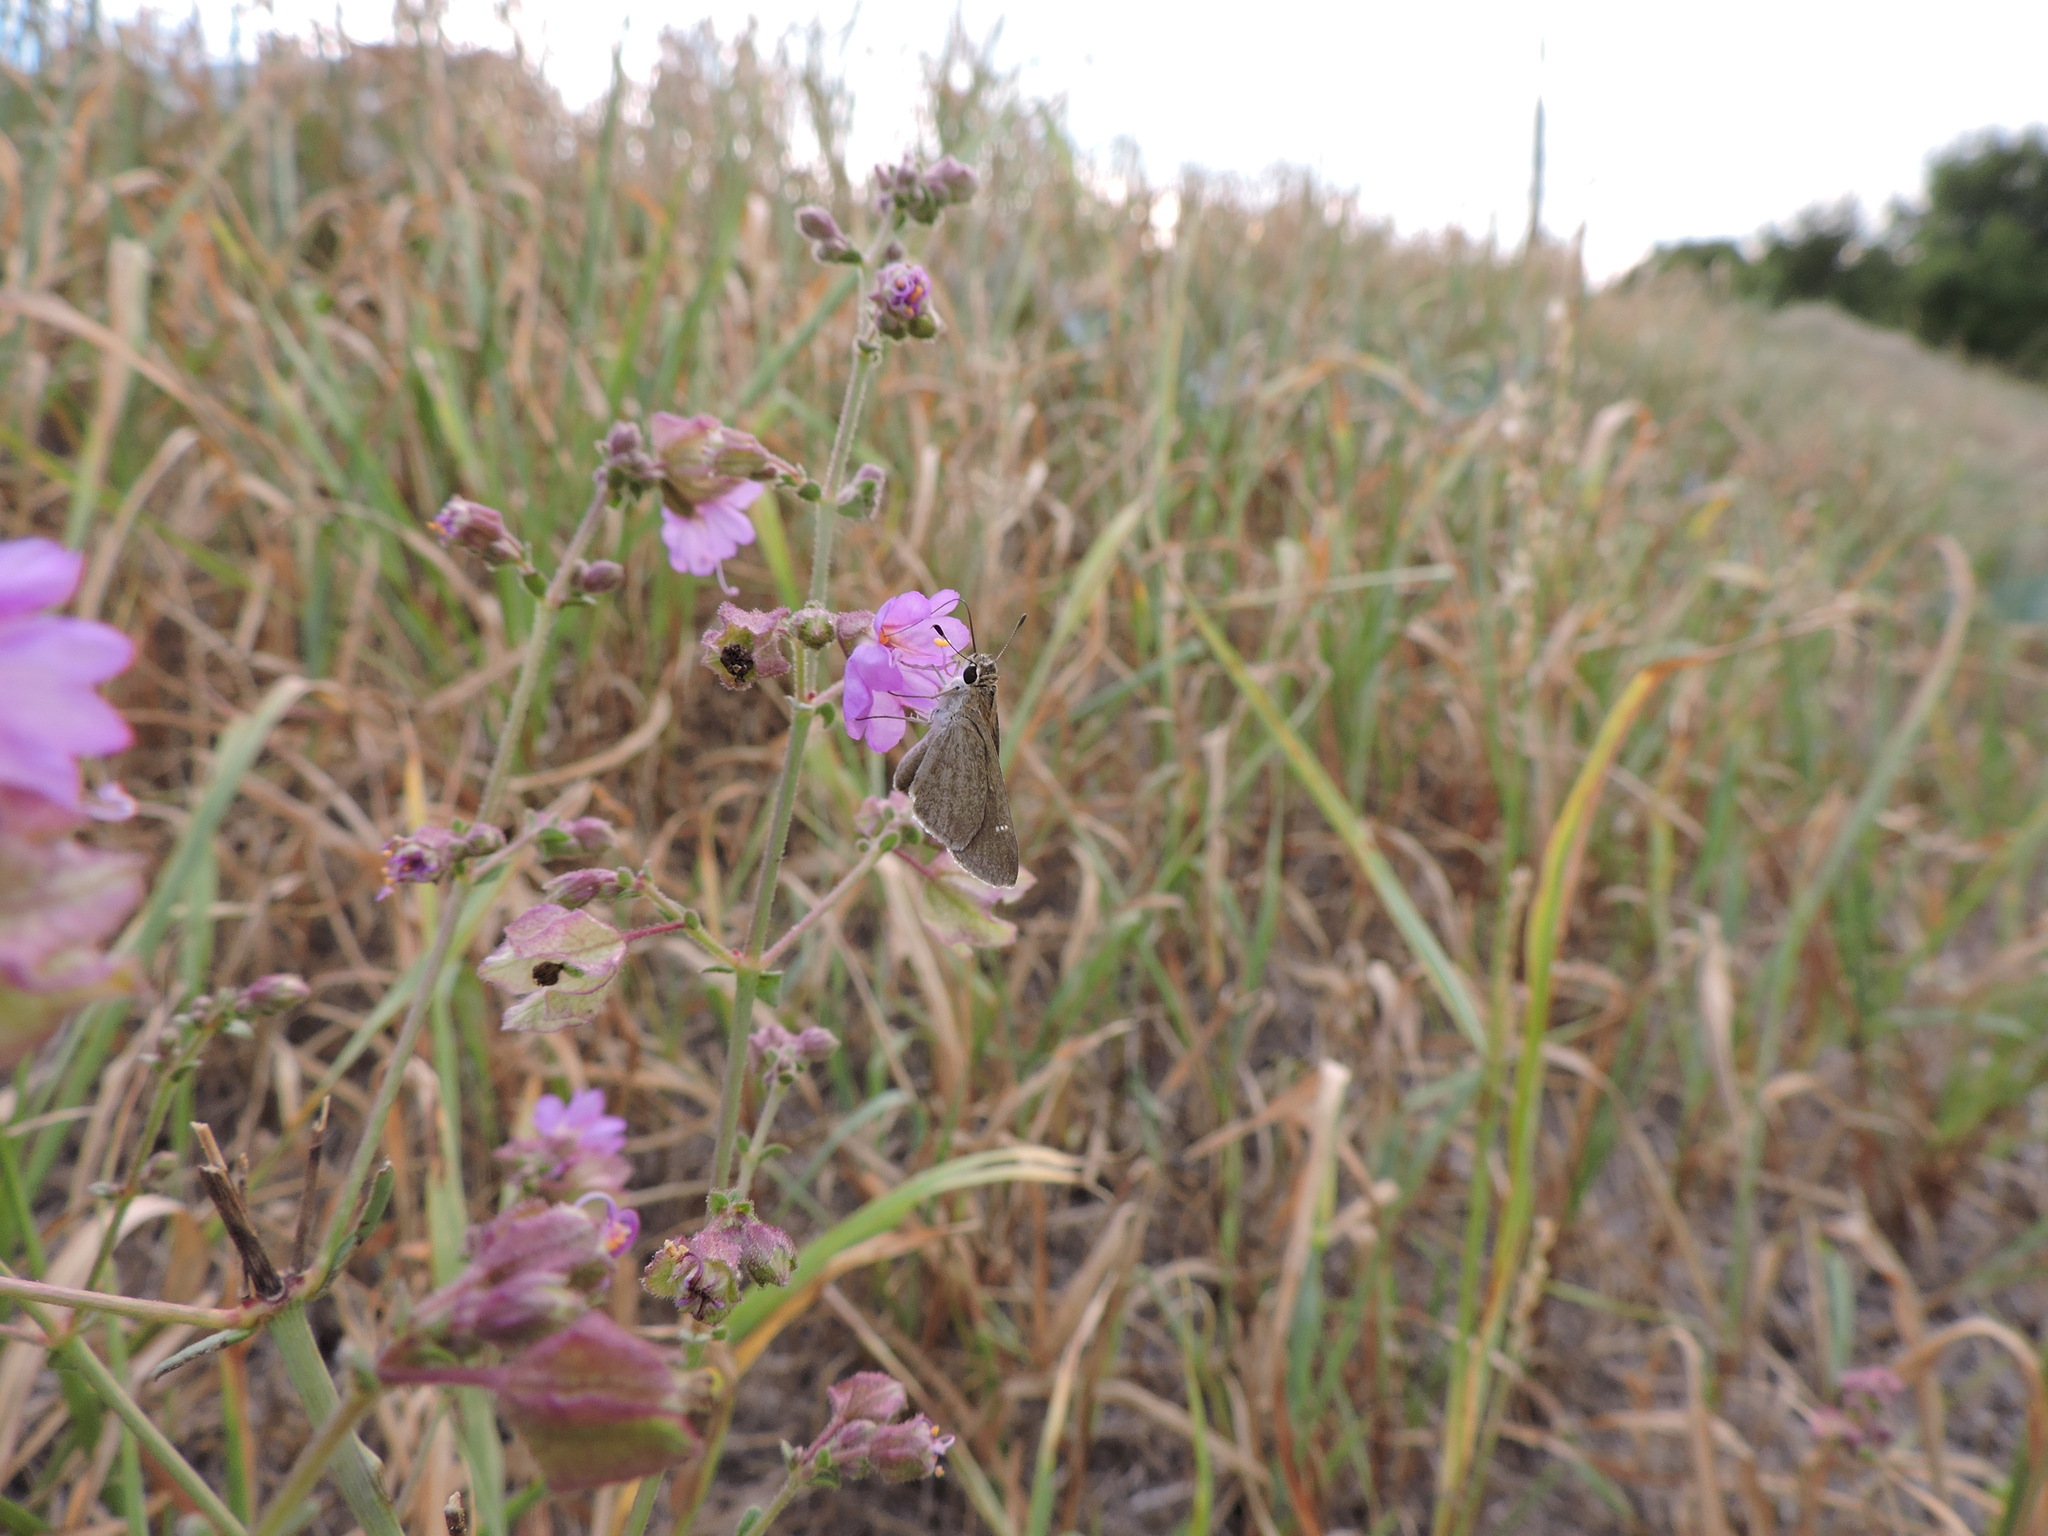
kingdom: Animalia
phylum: Arthropoda
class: Insecta
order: Lepidoptera
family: Hesperiidae
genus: Lerodea
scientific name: Lerodea eufala
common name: Eufala skipper
